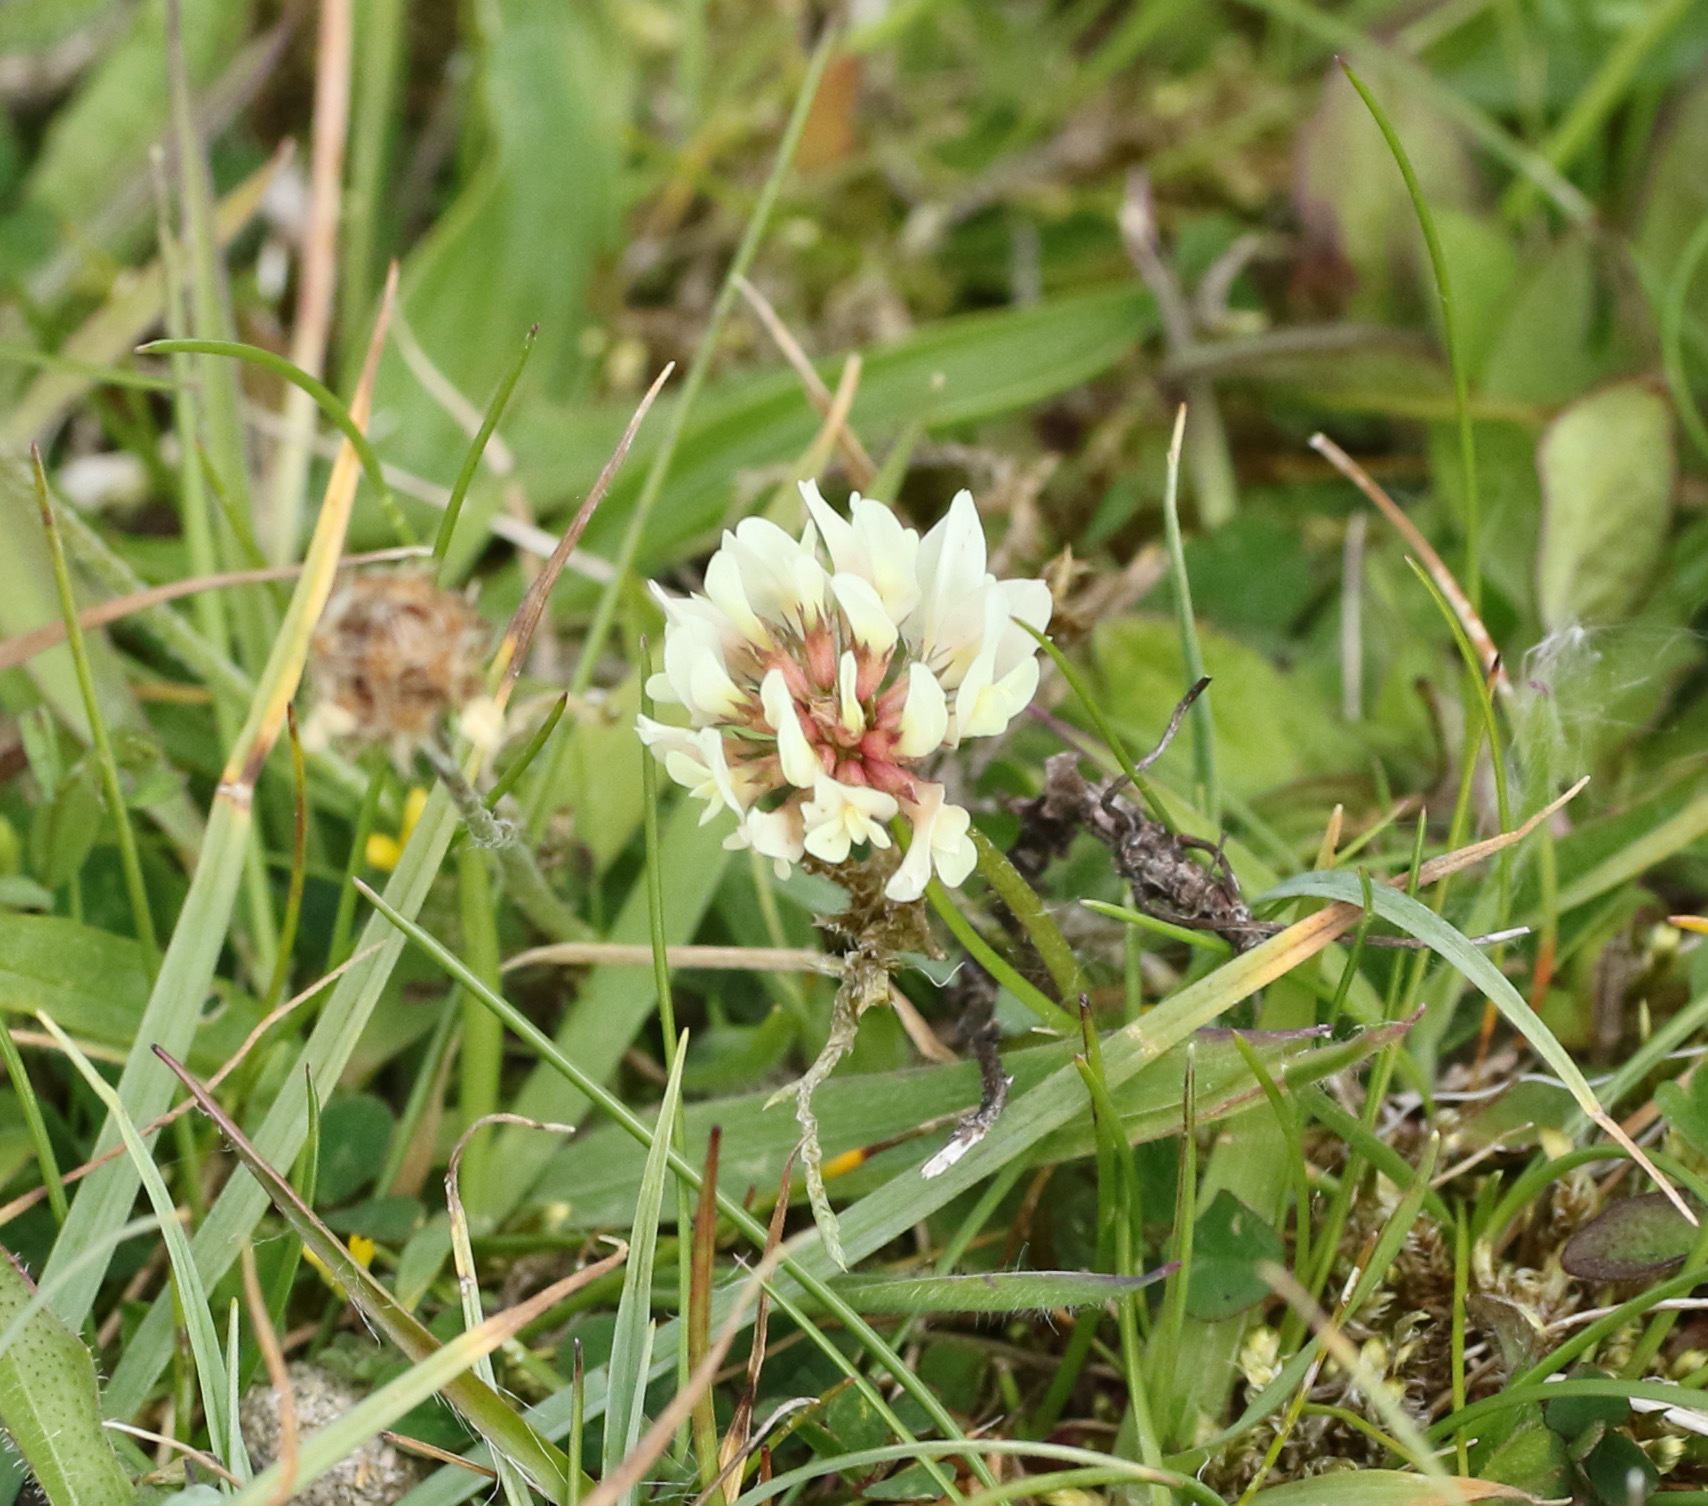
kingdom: Plantae
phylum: Tracheophyta
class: Magnoliopsida
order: Fabales
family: Fabaceae
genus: Trifolium
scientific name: Trifolium repens
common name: White clover
